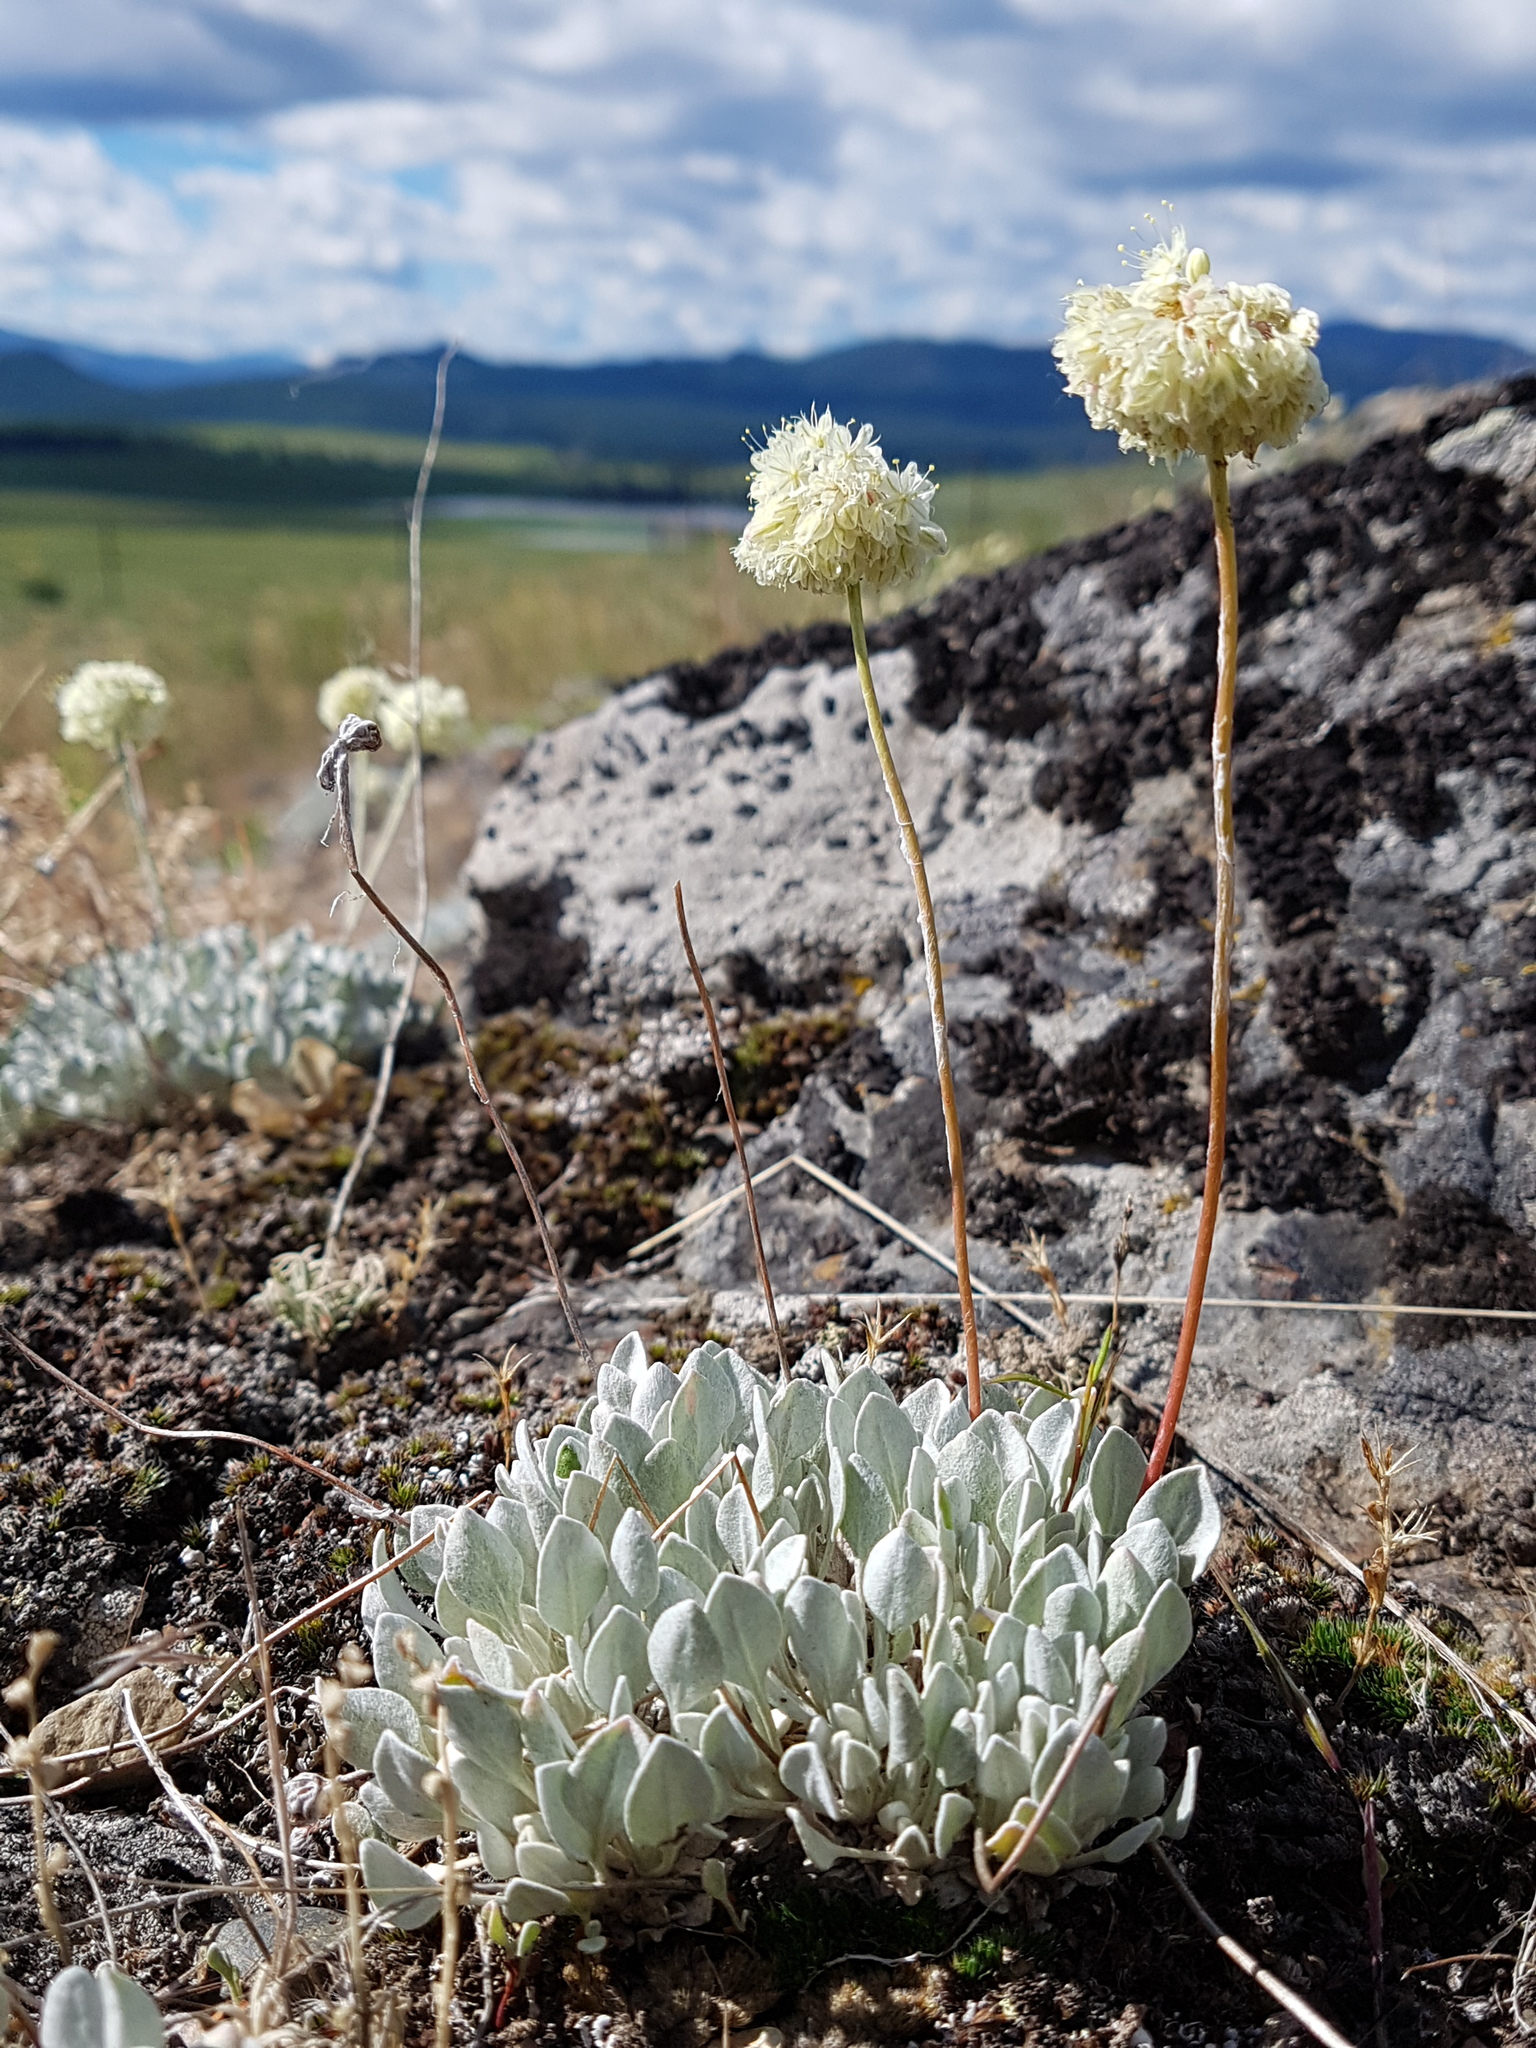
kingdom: Plantae
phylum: Tracheophyta
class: Magnoliopsida
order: Caryophyllales
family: Polygonaceae
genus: Eriogonum
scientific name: Eriogonum ovalifolium
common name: Cushion buckwheat
